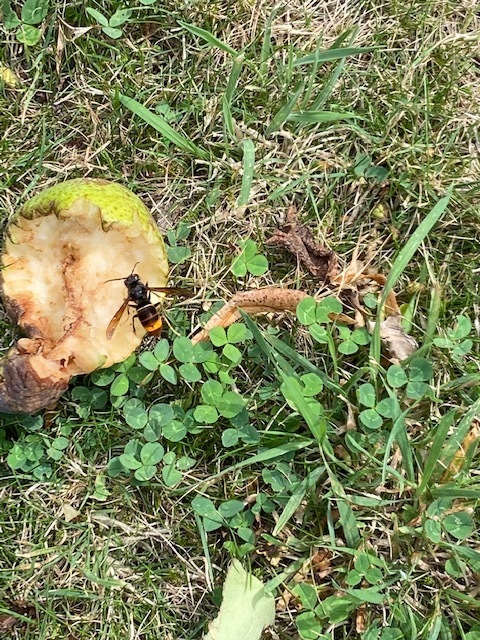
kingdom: Animalia
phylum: Arthropoda
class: Insecta
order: Hymenoptera
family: Vespidae
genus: Vespa
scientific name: Vespa velutina
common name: Asian hornet
